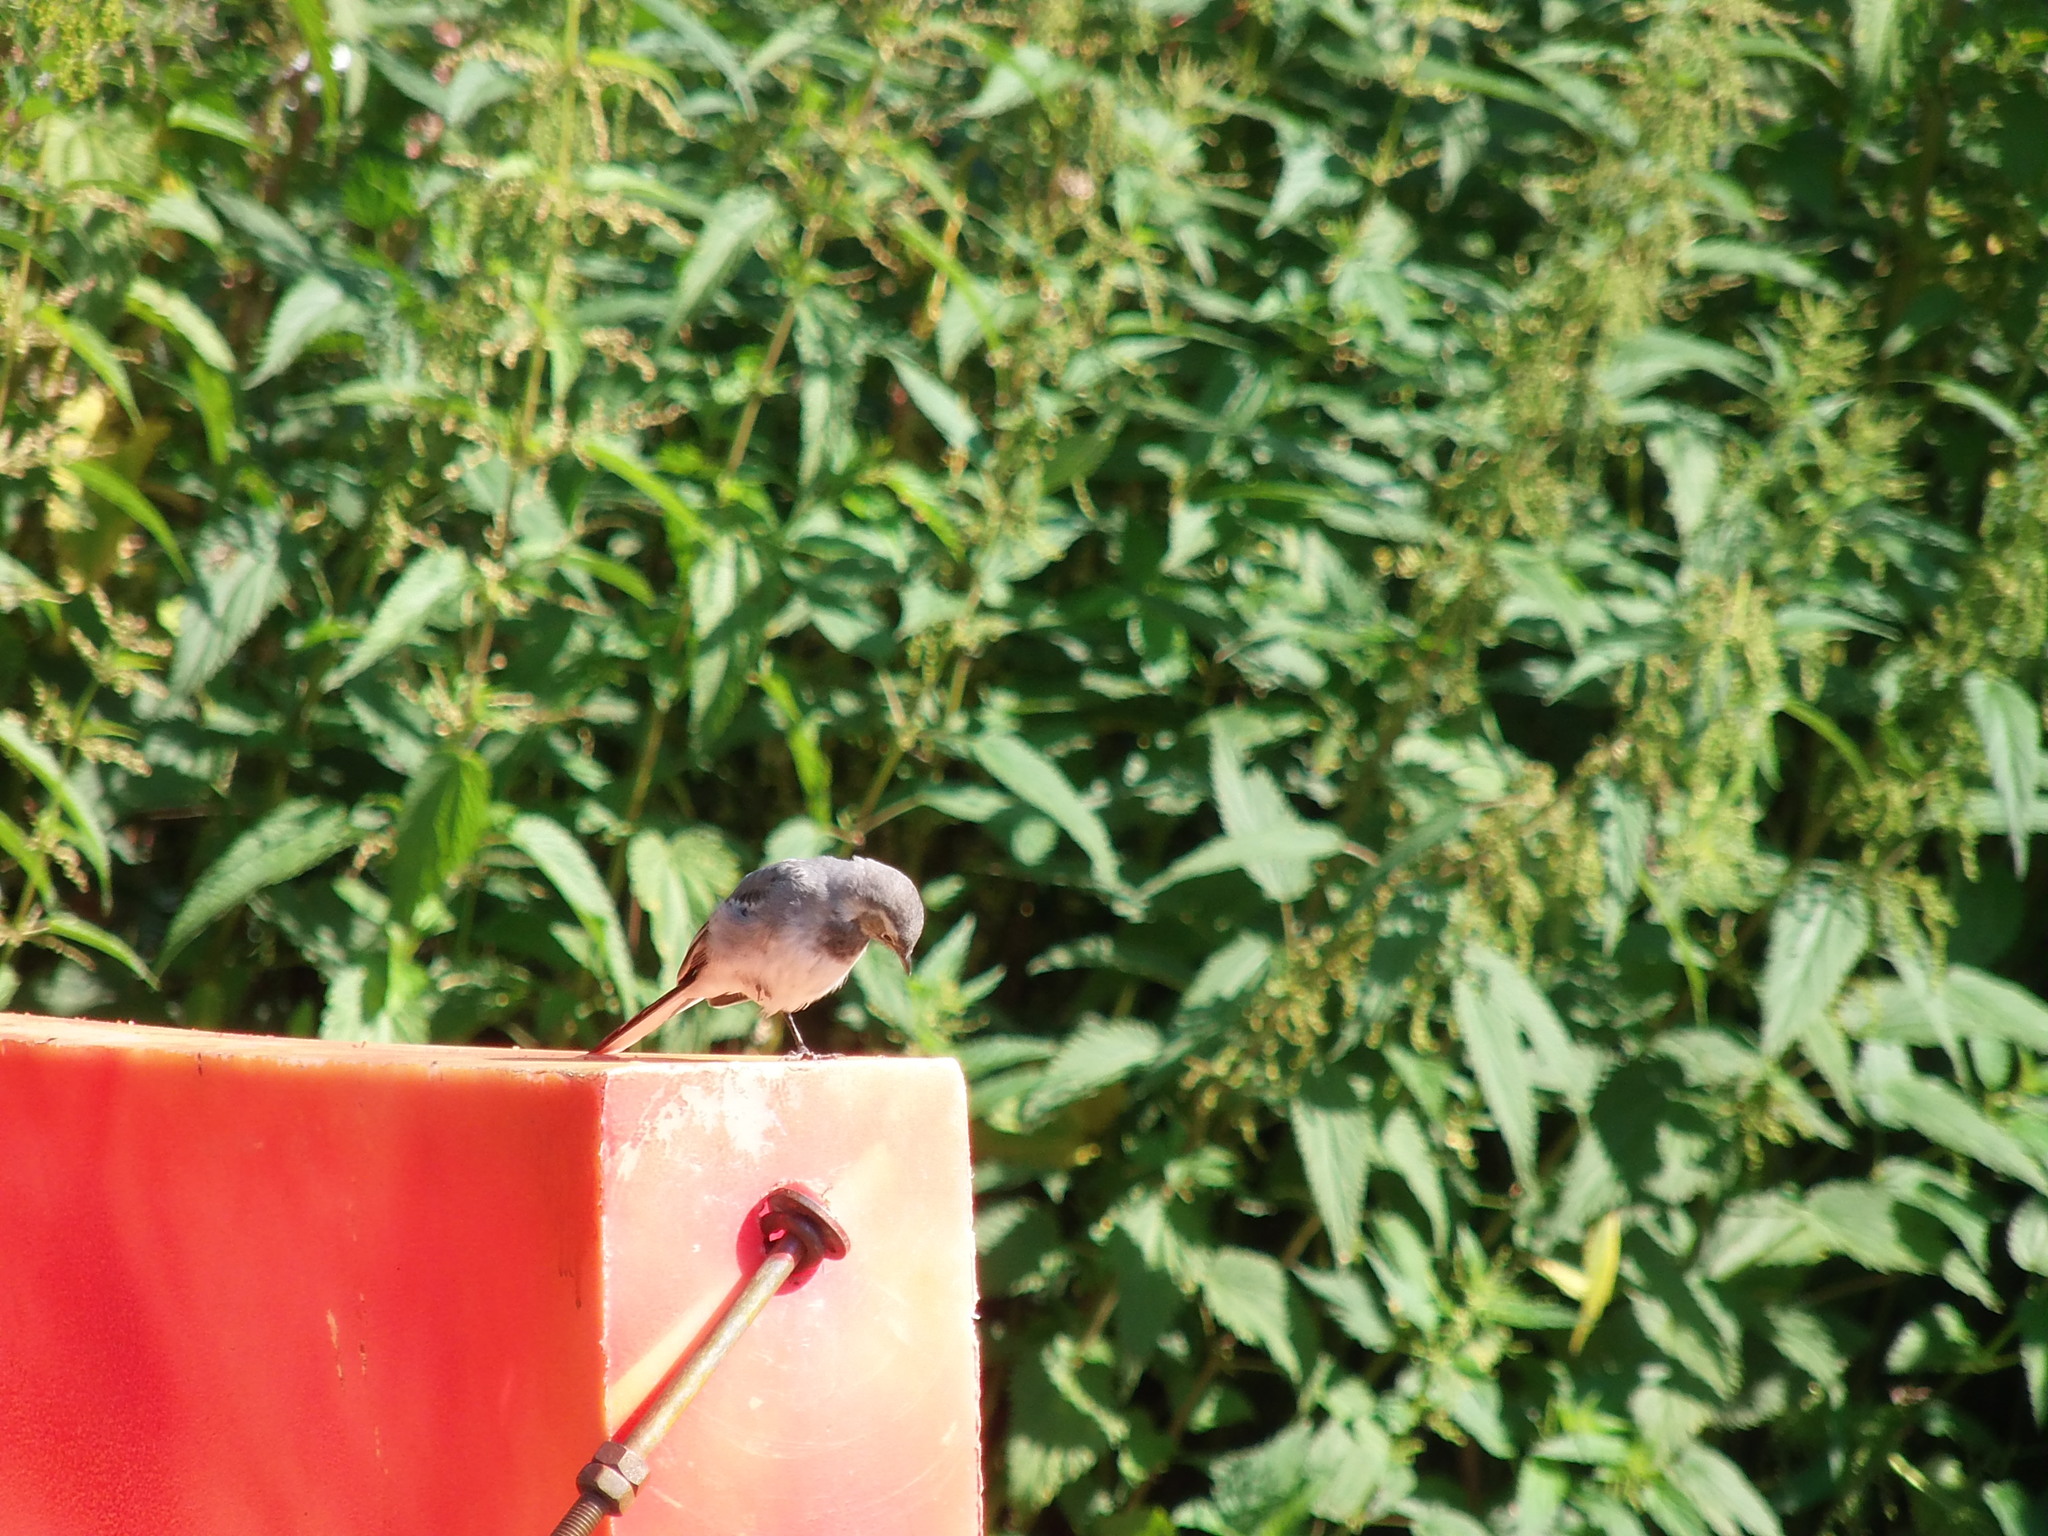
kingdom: Animalia
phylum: Chordata
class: Aves
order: Passeriformes
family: Motacillidae
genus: Motacilla
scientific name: Motacilla alba
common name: White wagtail
